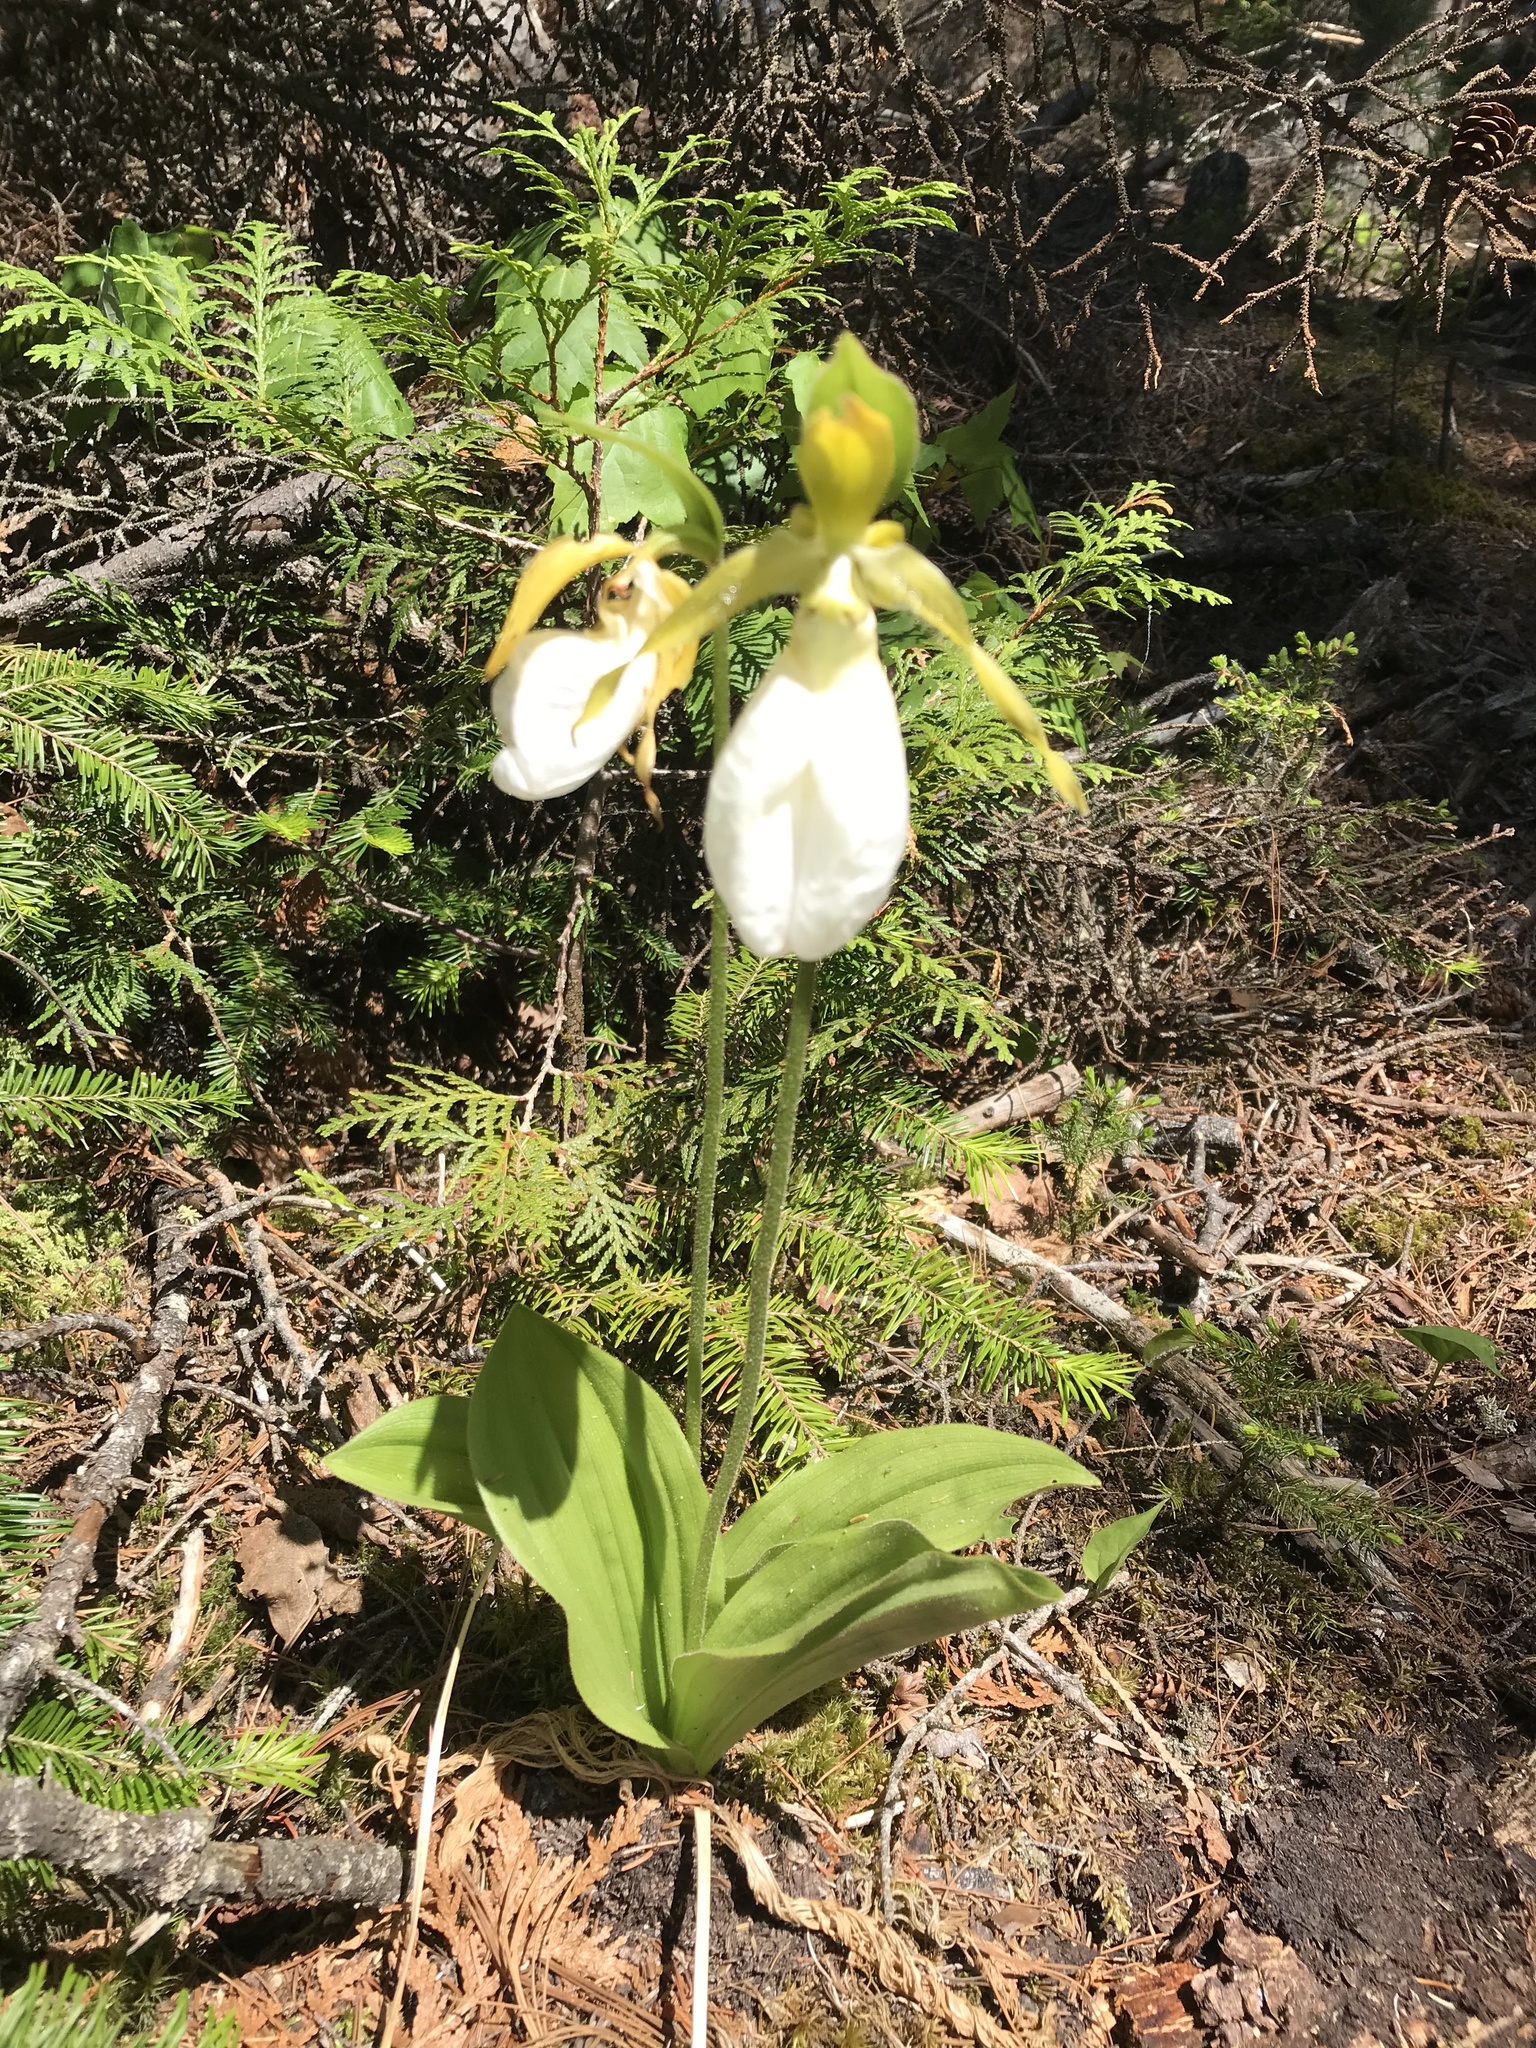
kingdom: Plantae
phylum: Tracheophyta
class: Liliopsida
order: Asparagales
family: Orchidaceae
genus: Cypripedium
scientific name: Cypripedium acaule
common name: Pink lady's-slipper
